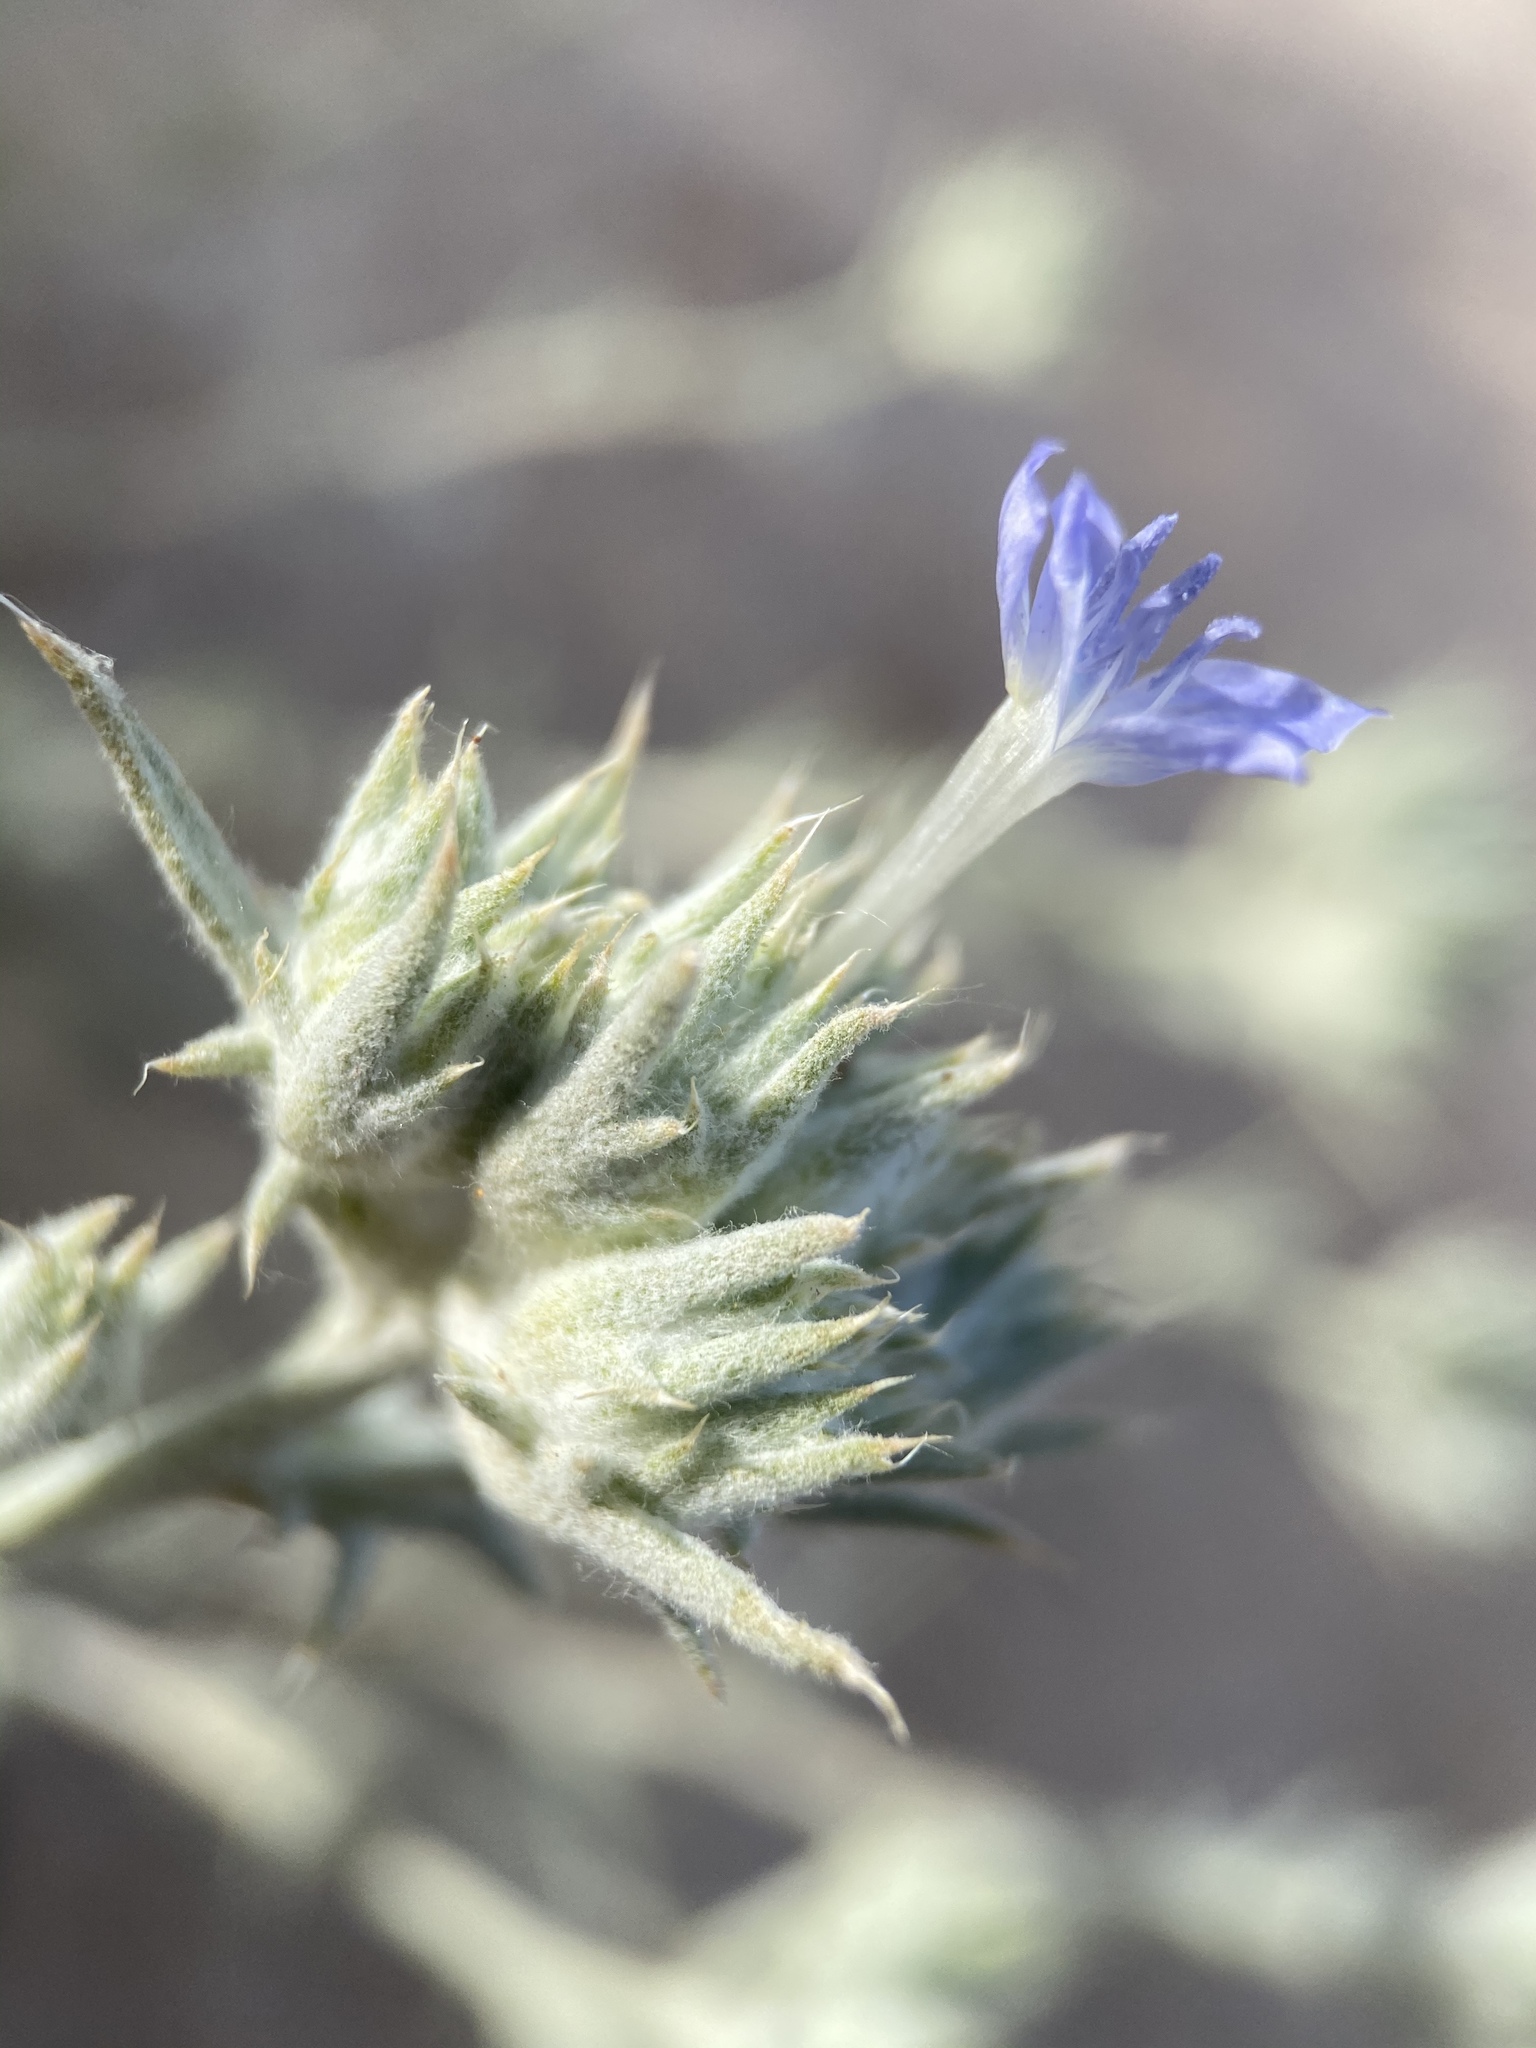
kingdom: Plantae
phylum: Tracheophyta
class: Magnoliopsida
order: Ericales
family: Polemoniaceae
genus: Eriastrum
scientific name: Eriastrum densifolium
